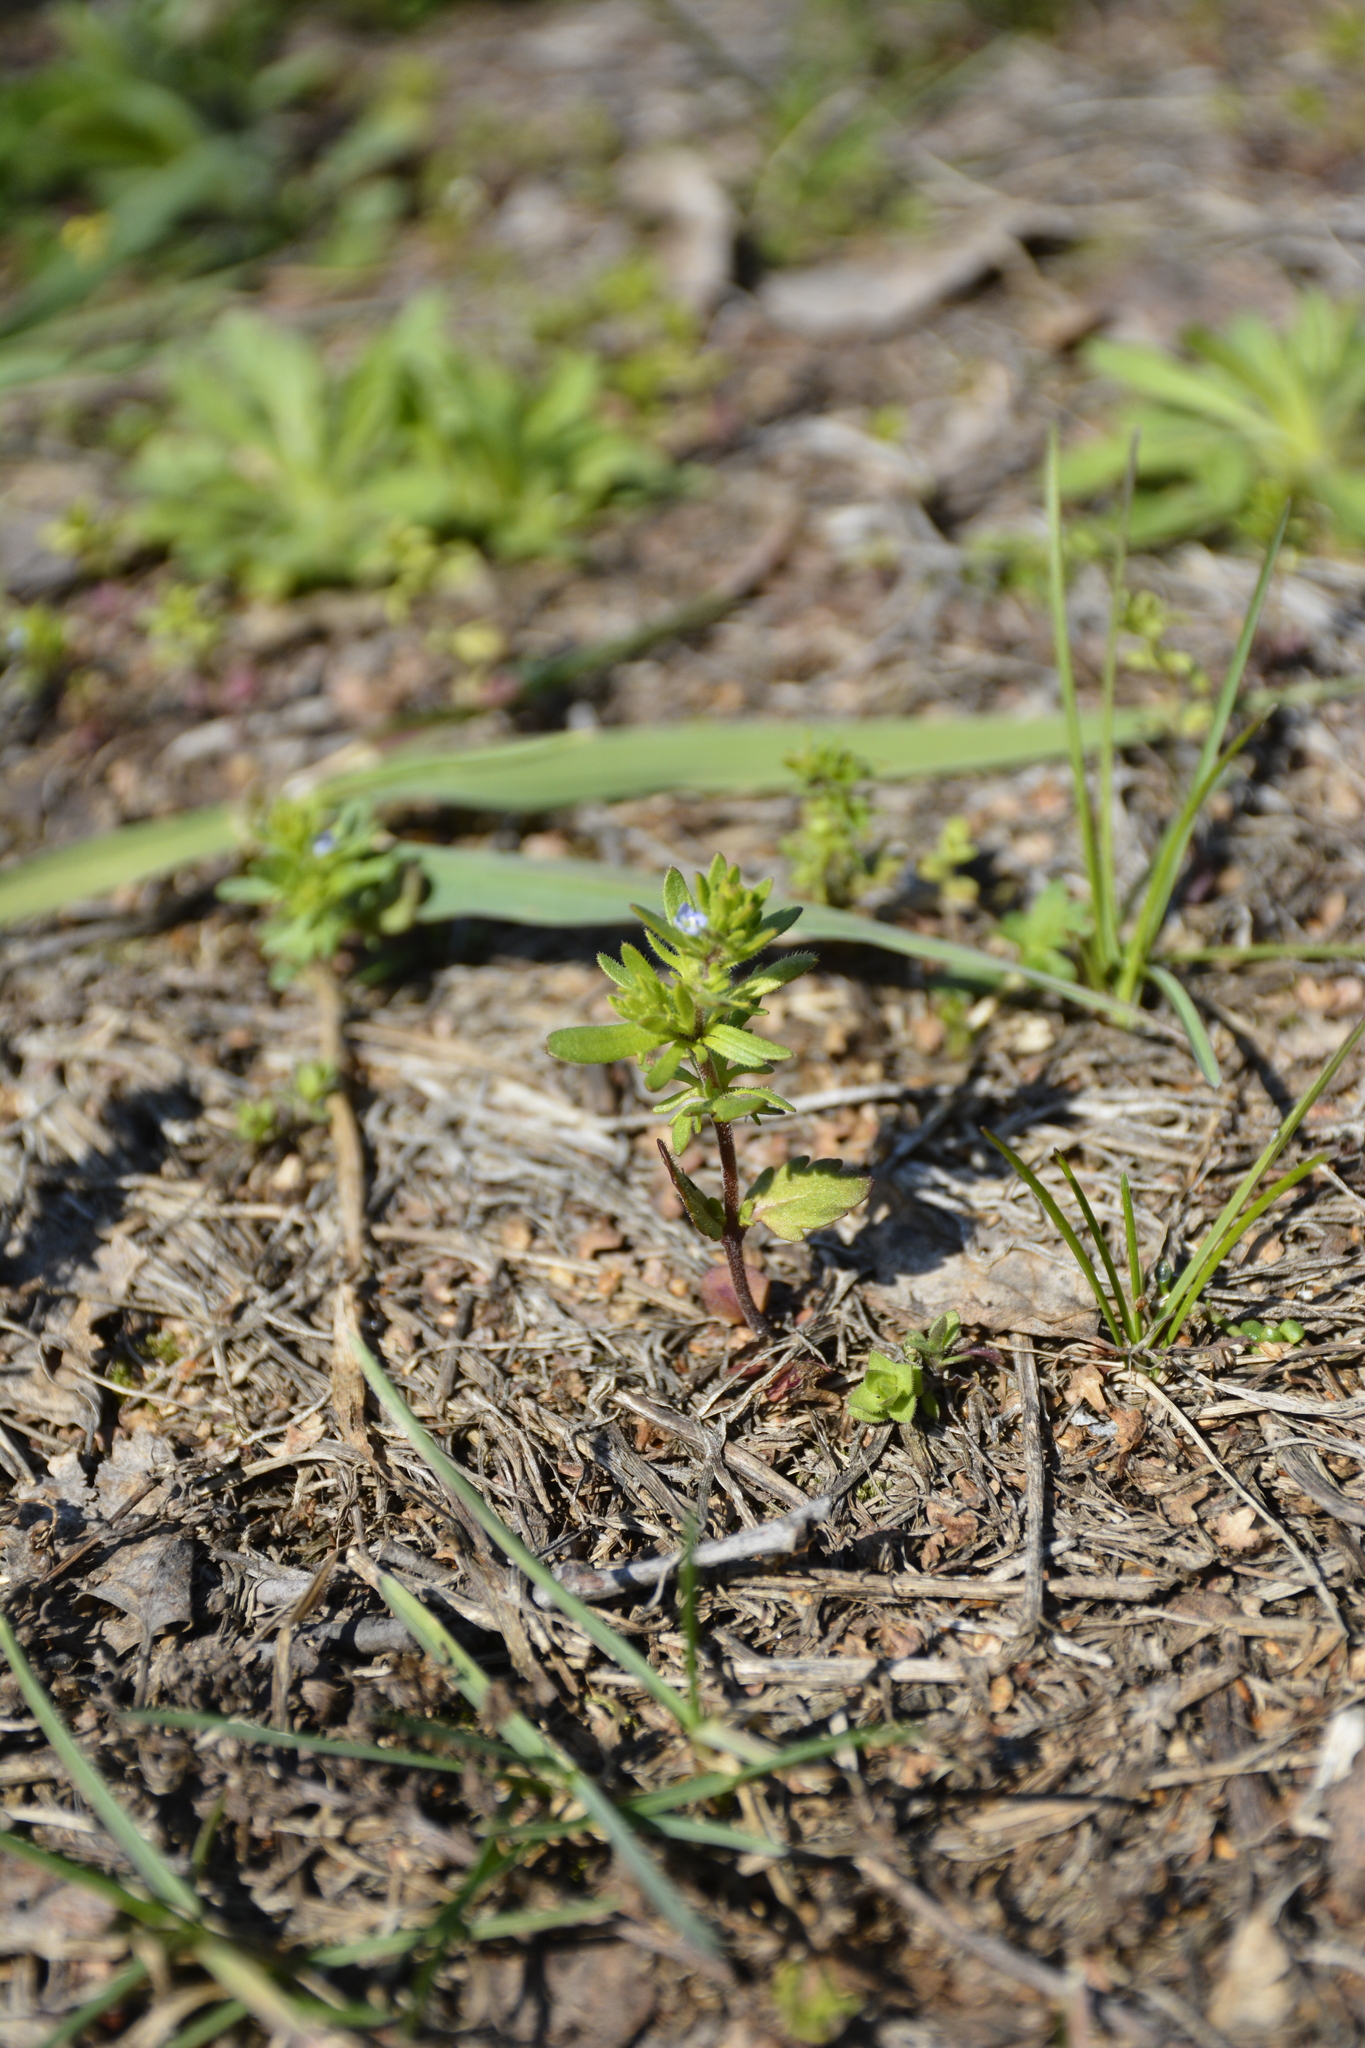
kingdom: Plantae
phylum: Tracheophyta
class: Magnoliopsida
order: Lamiales
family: Plantaginaceae
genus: Veronica
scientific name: Veronica verna
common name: Spring speedwell
